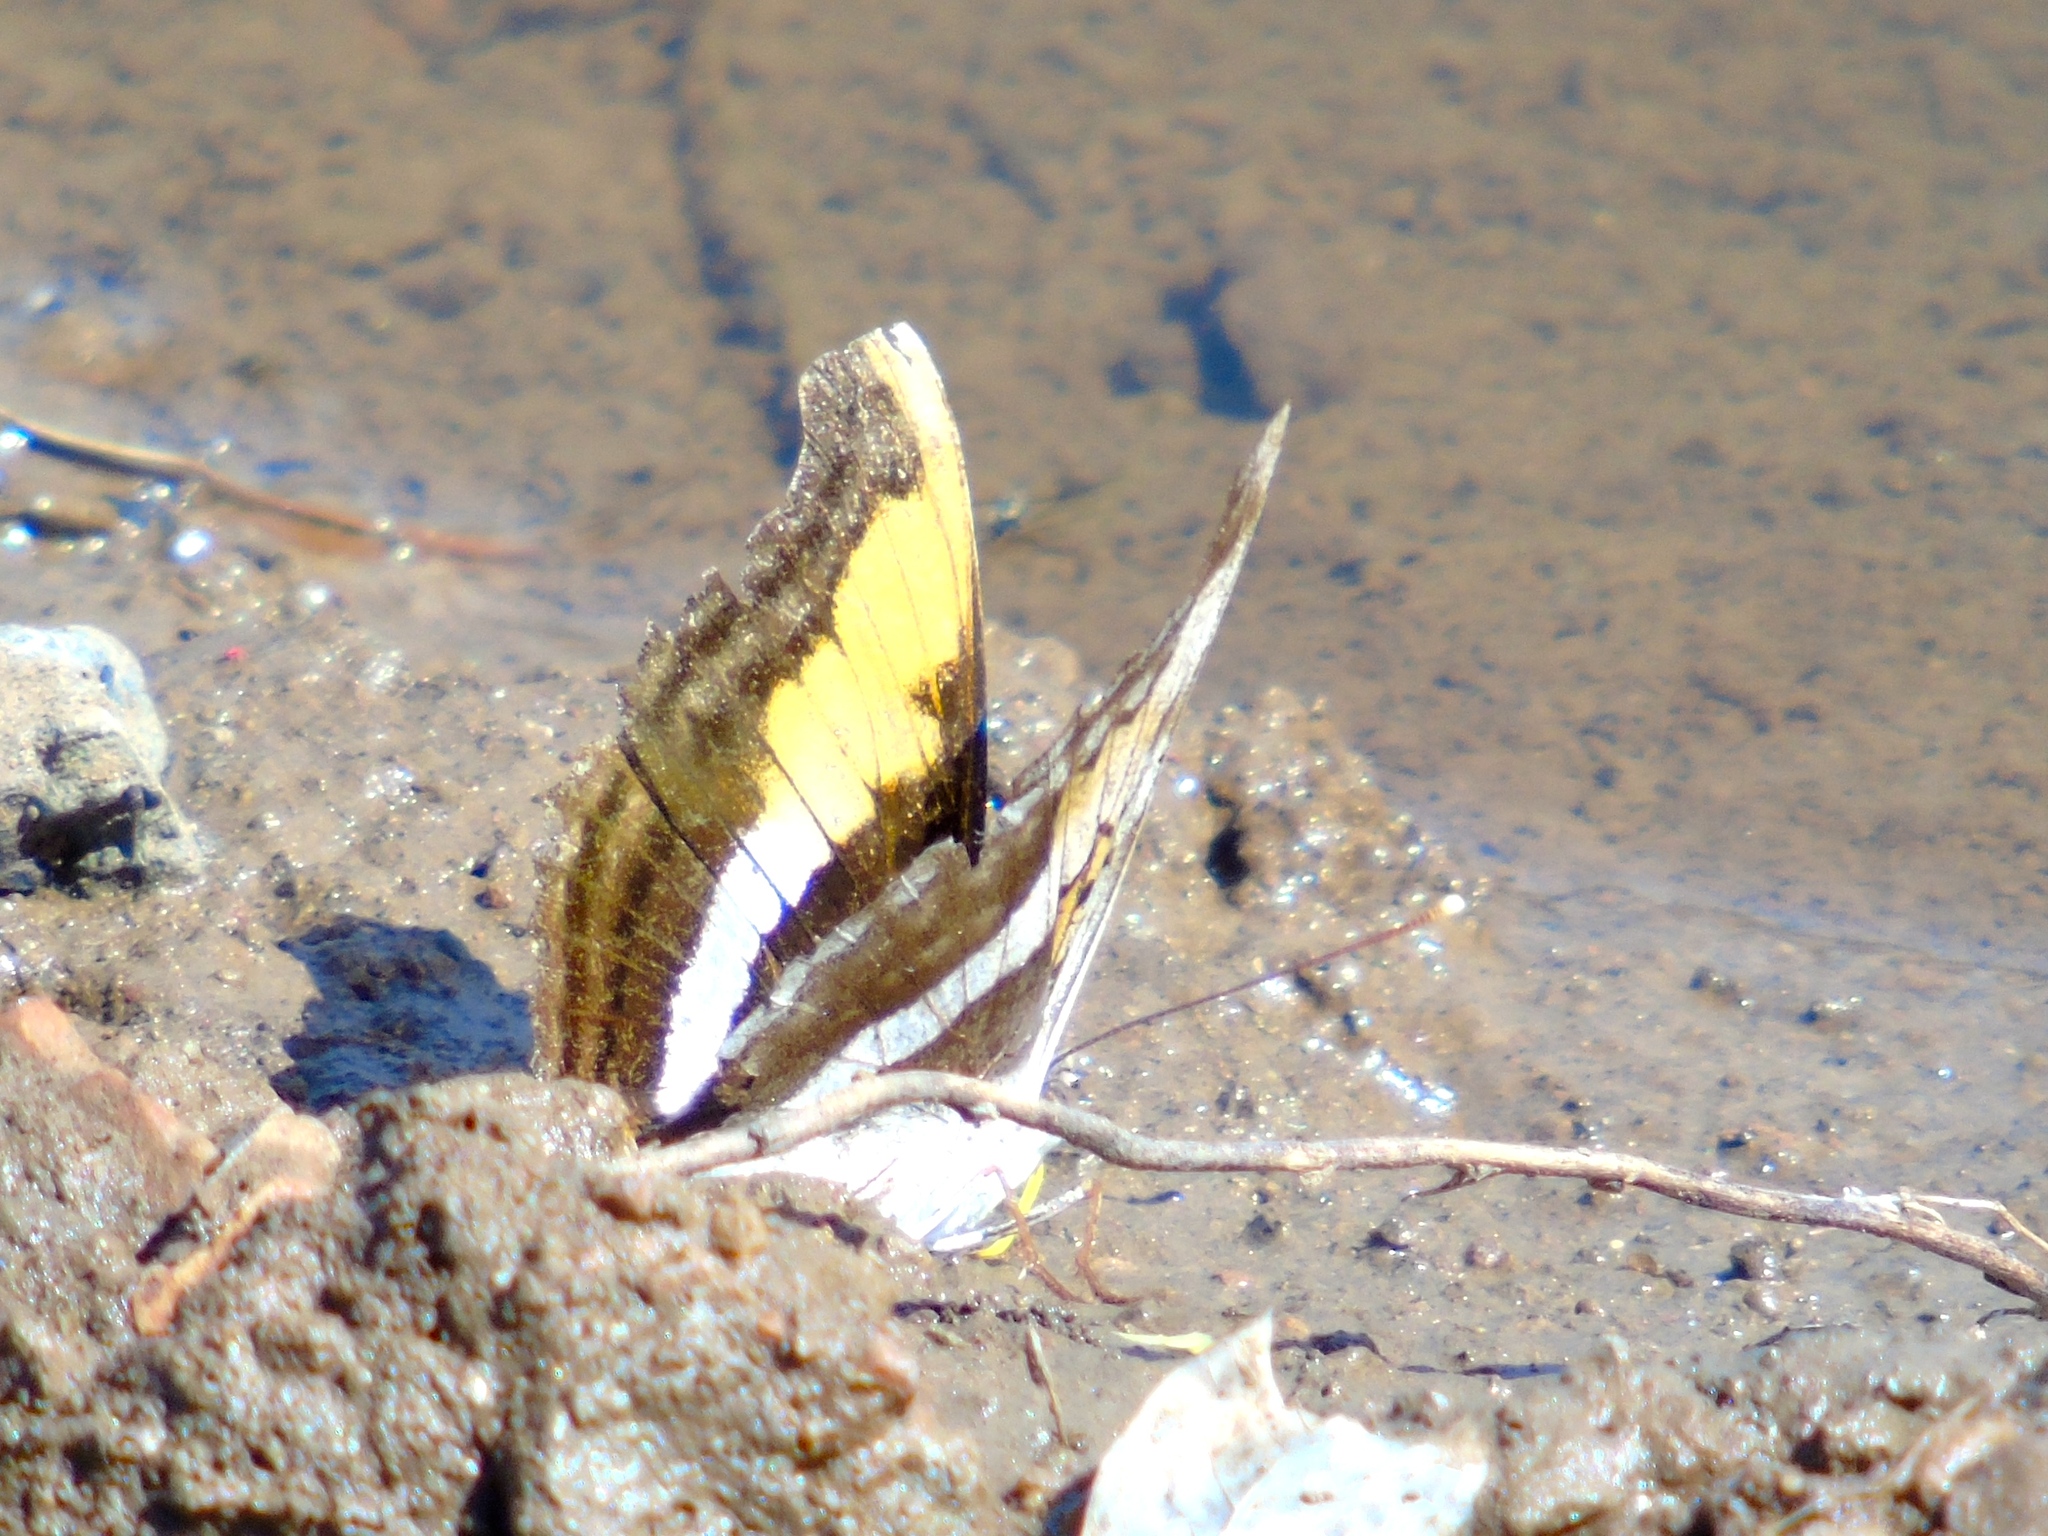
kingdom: Animalia
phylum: Arthropoda
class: Insecta
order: Lepidoptera
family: Nymphalidae
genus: Doxocopa
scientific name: Doxocopa laure
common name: Silver emperor
